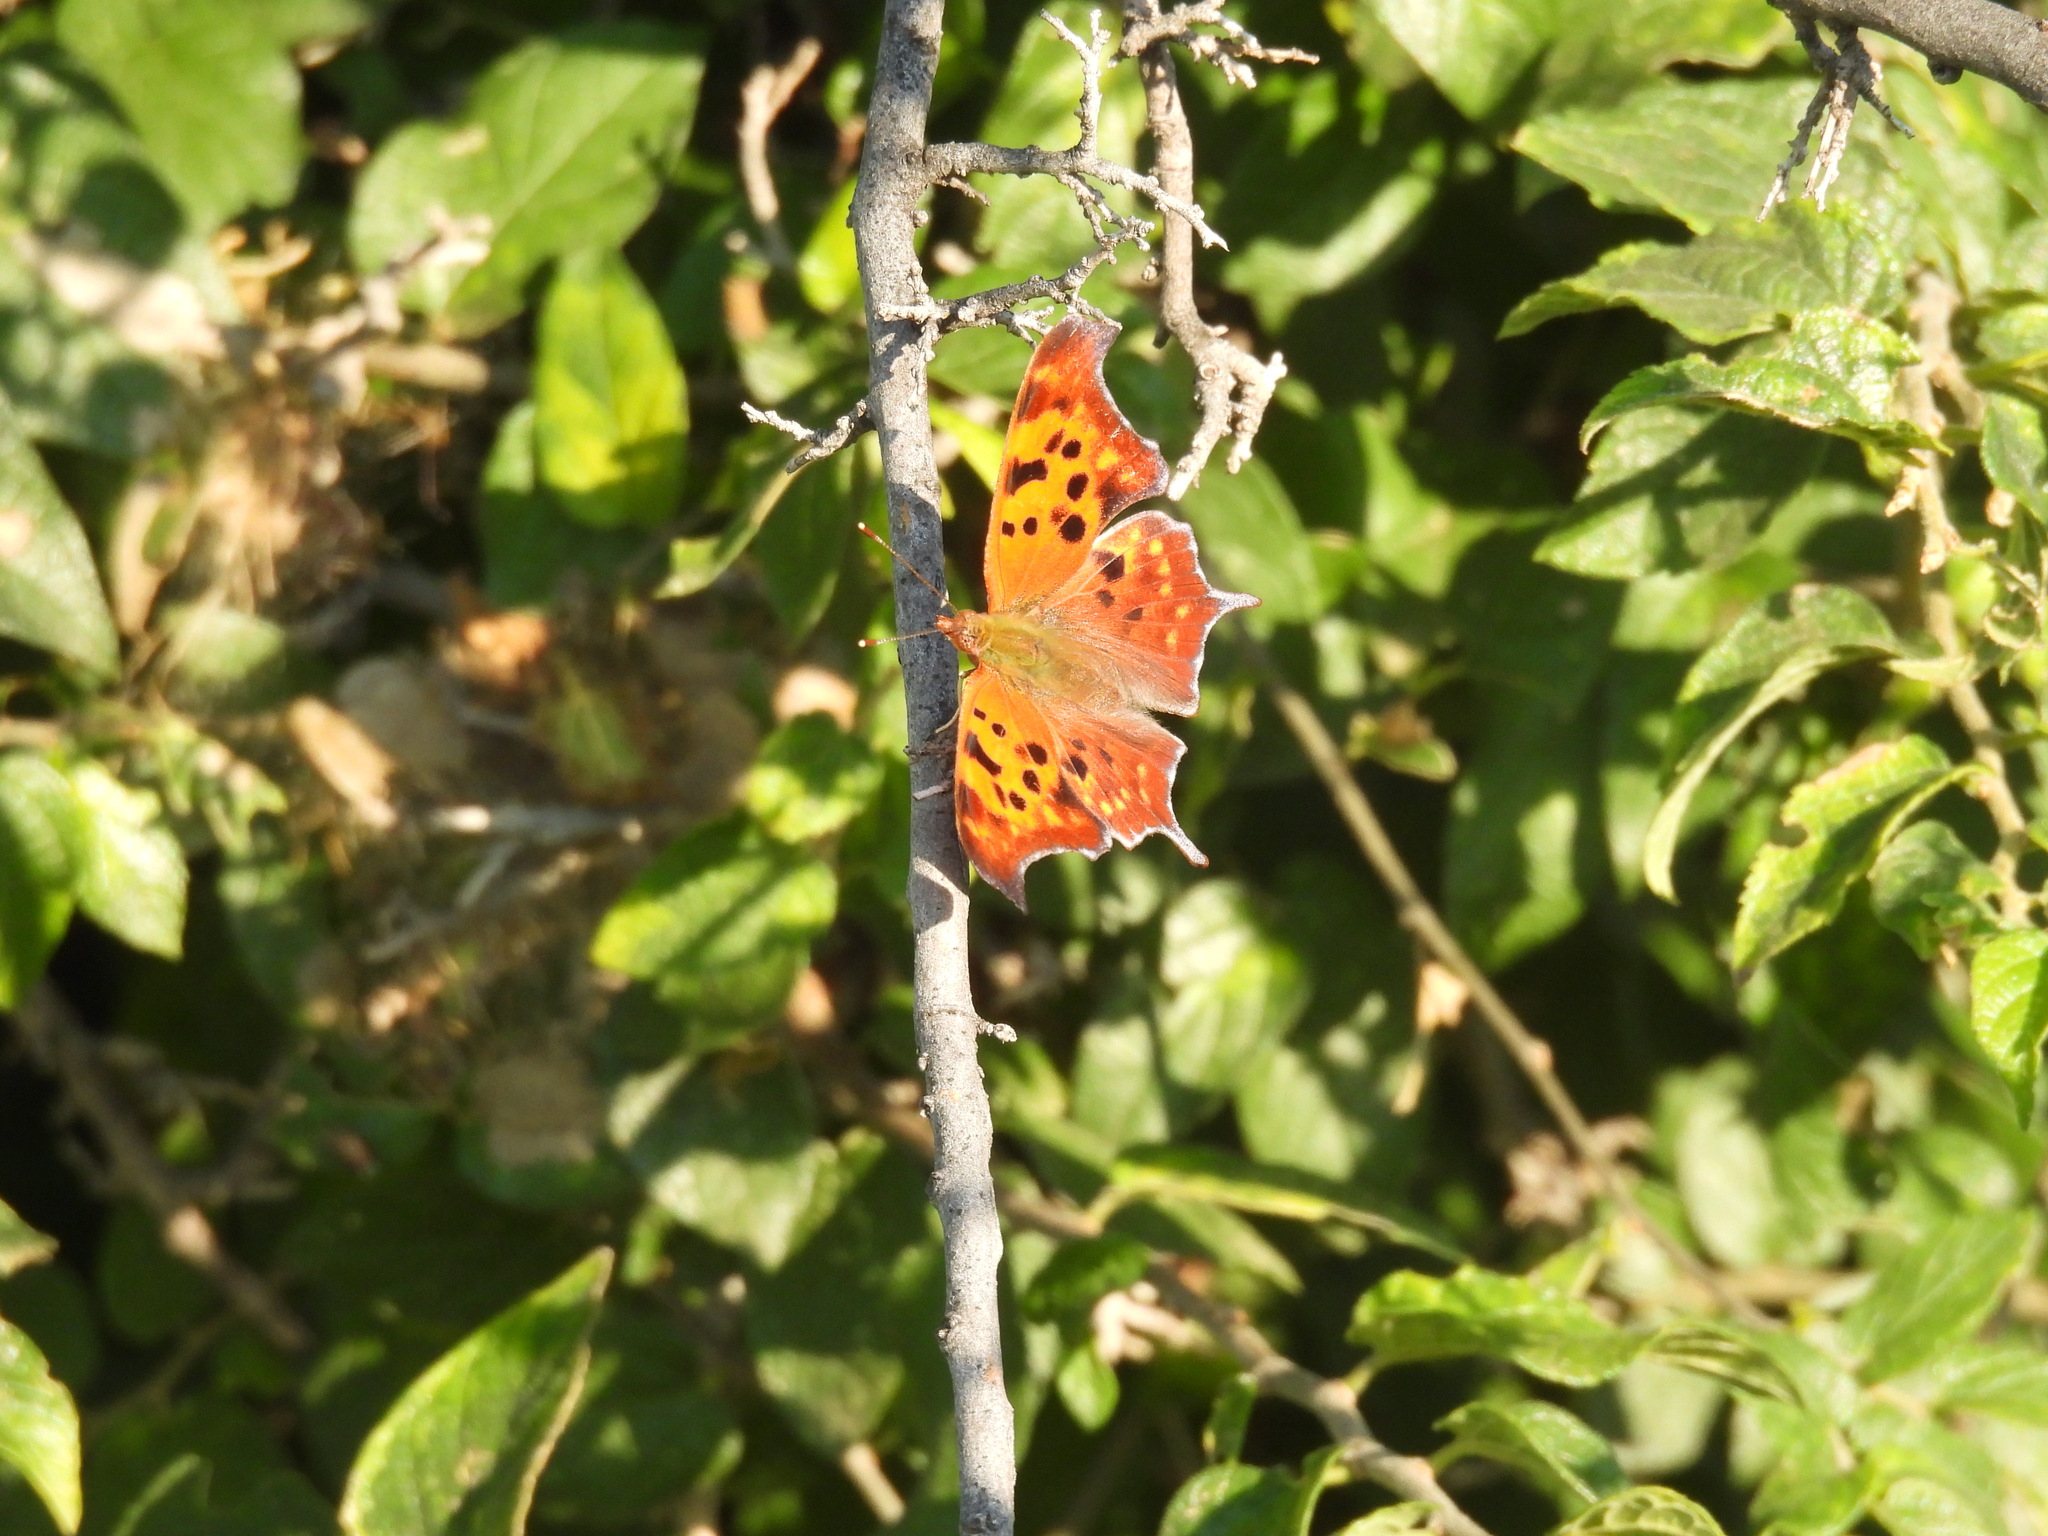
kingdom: Animalia
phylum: Arthropoda
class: Insecta
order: Lepidoptera
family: Nymphalidae
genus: Polygonia
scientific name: Polygonia interrogationis
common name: Question mark
